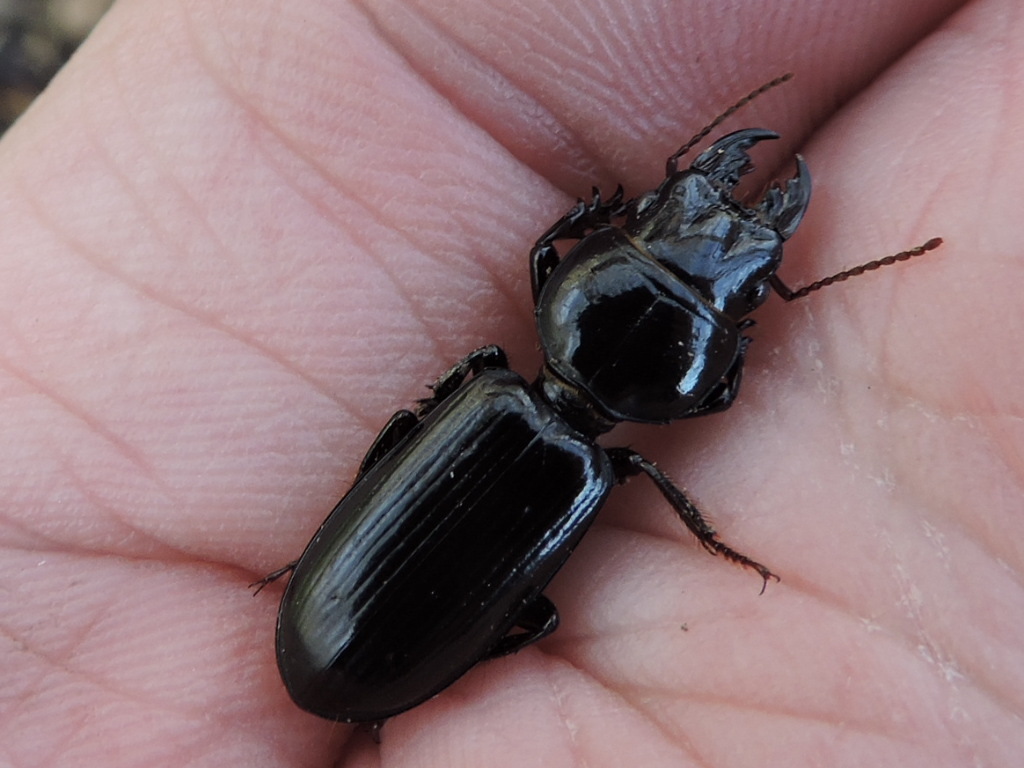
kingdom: Animalia
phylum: Arthropoda
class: Insecta
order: Coleoptera
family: Carabidae
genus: Scarites
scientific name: Scarites subterraneus
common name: Big-headed ground beetle
